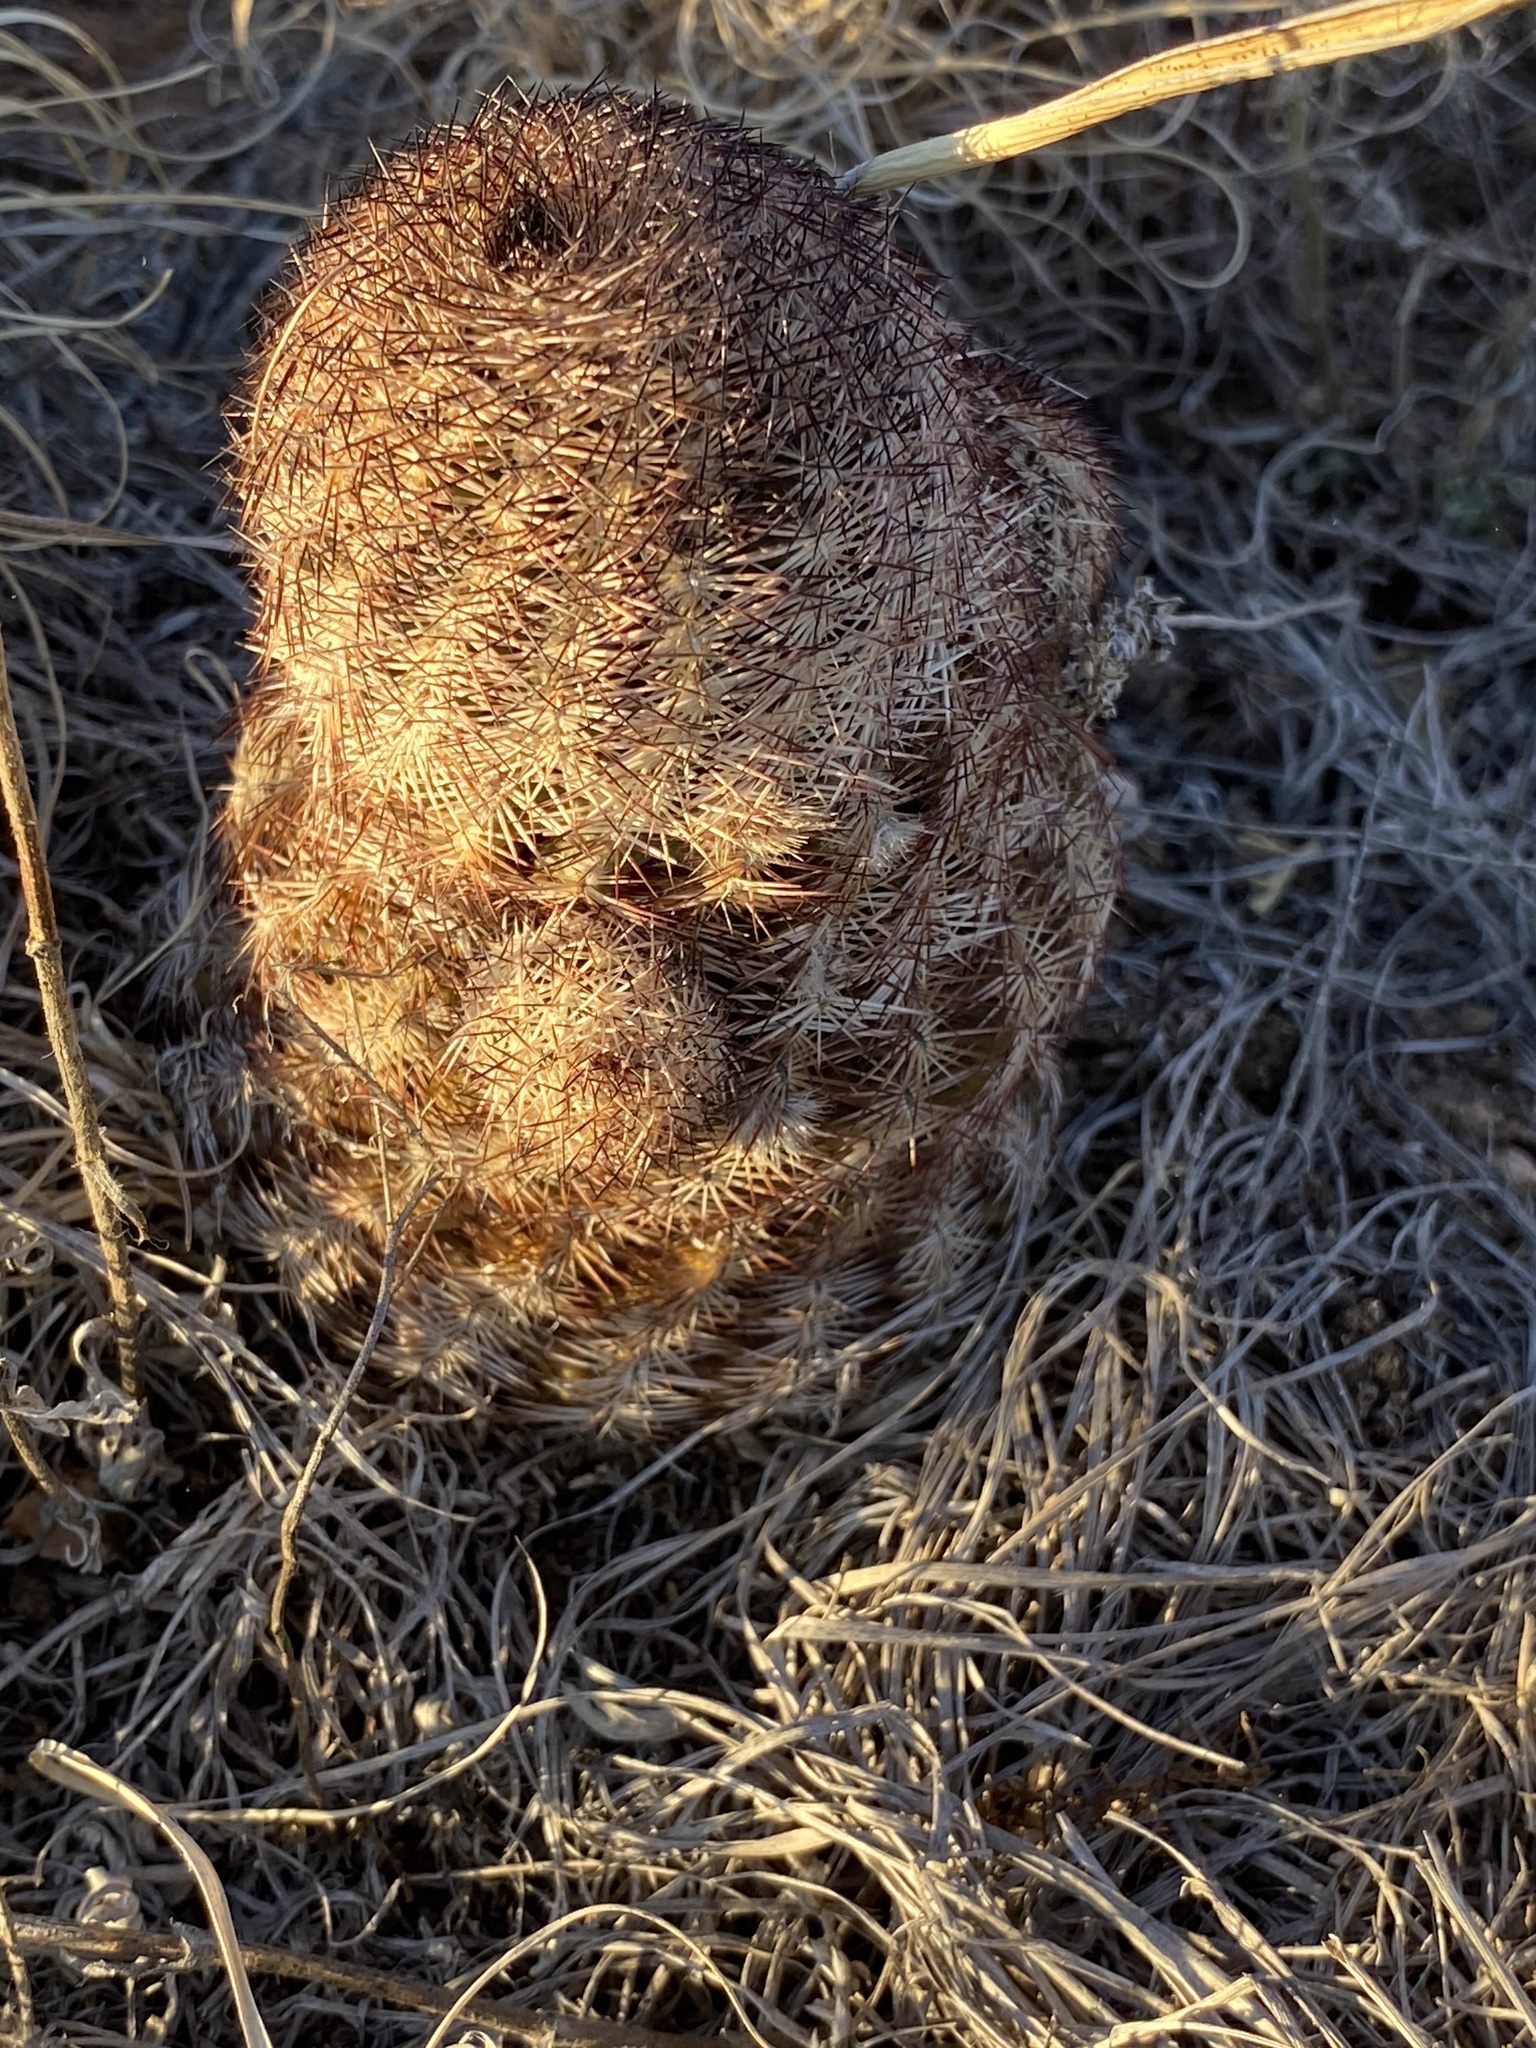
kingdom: Plantae
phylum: Tracheophyta
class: Magnoliopsida
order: Caryophyllales
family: Cactaceae
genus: Echinocereus
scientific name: Echinocereus reichenbachii
